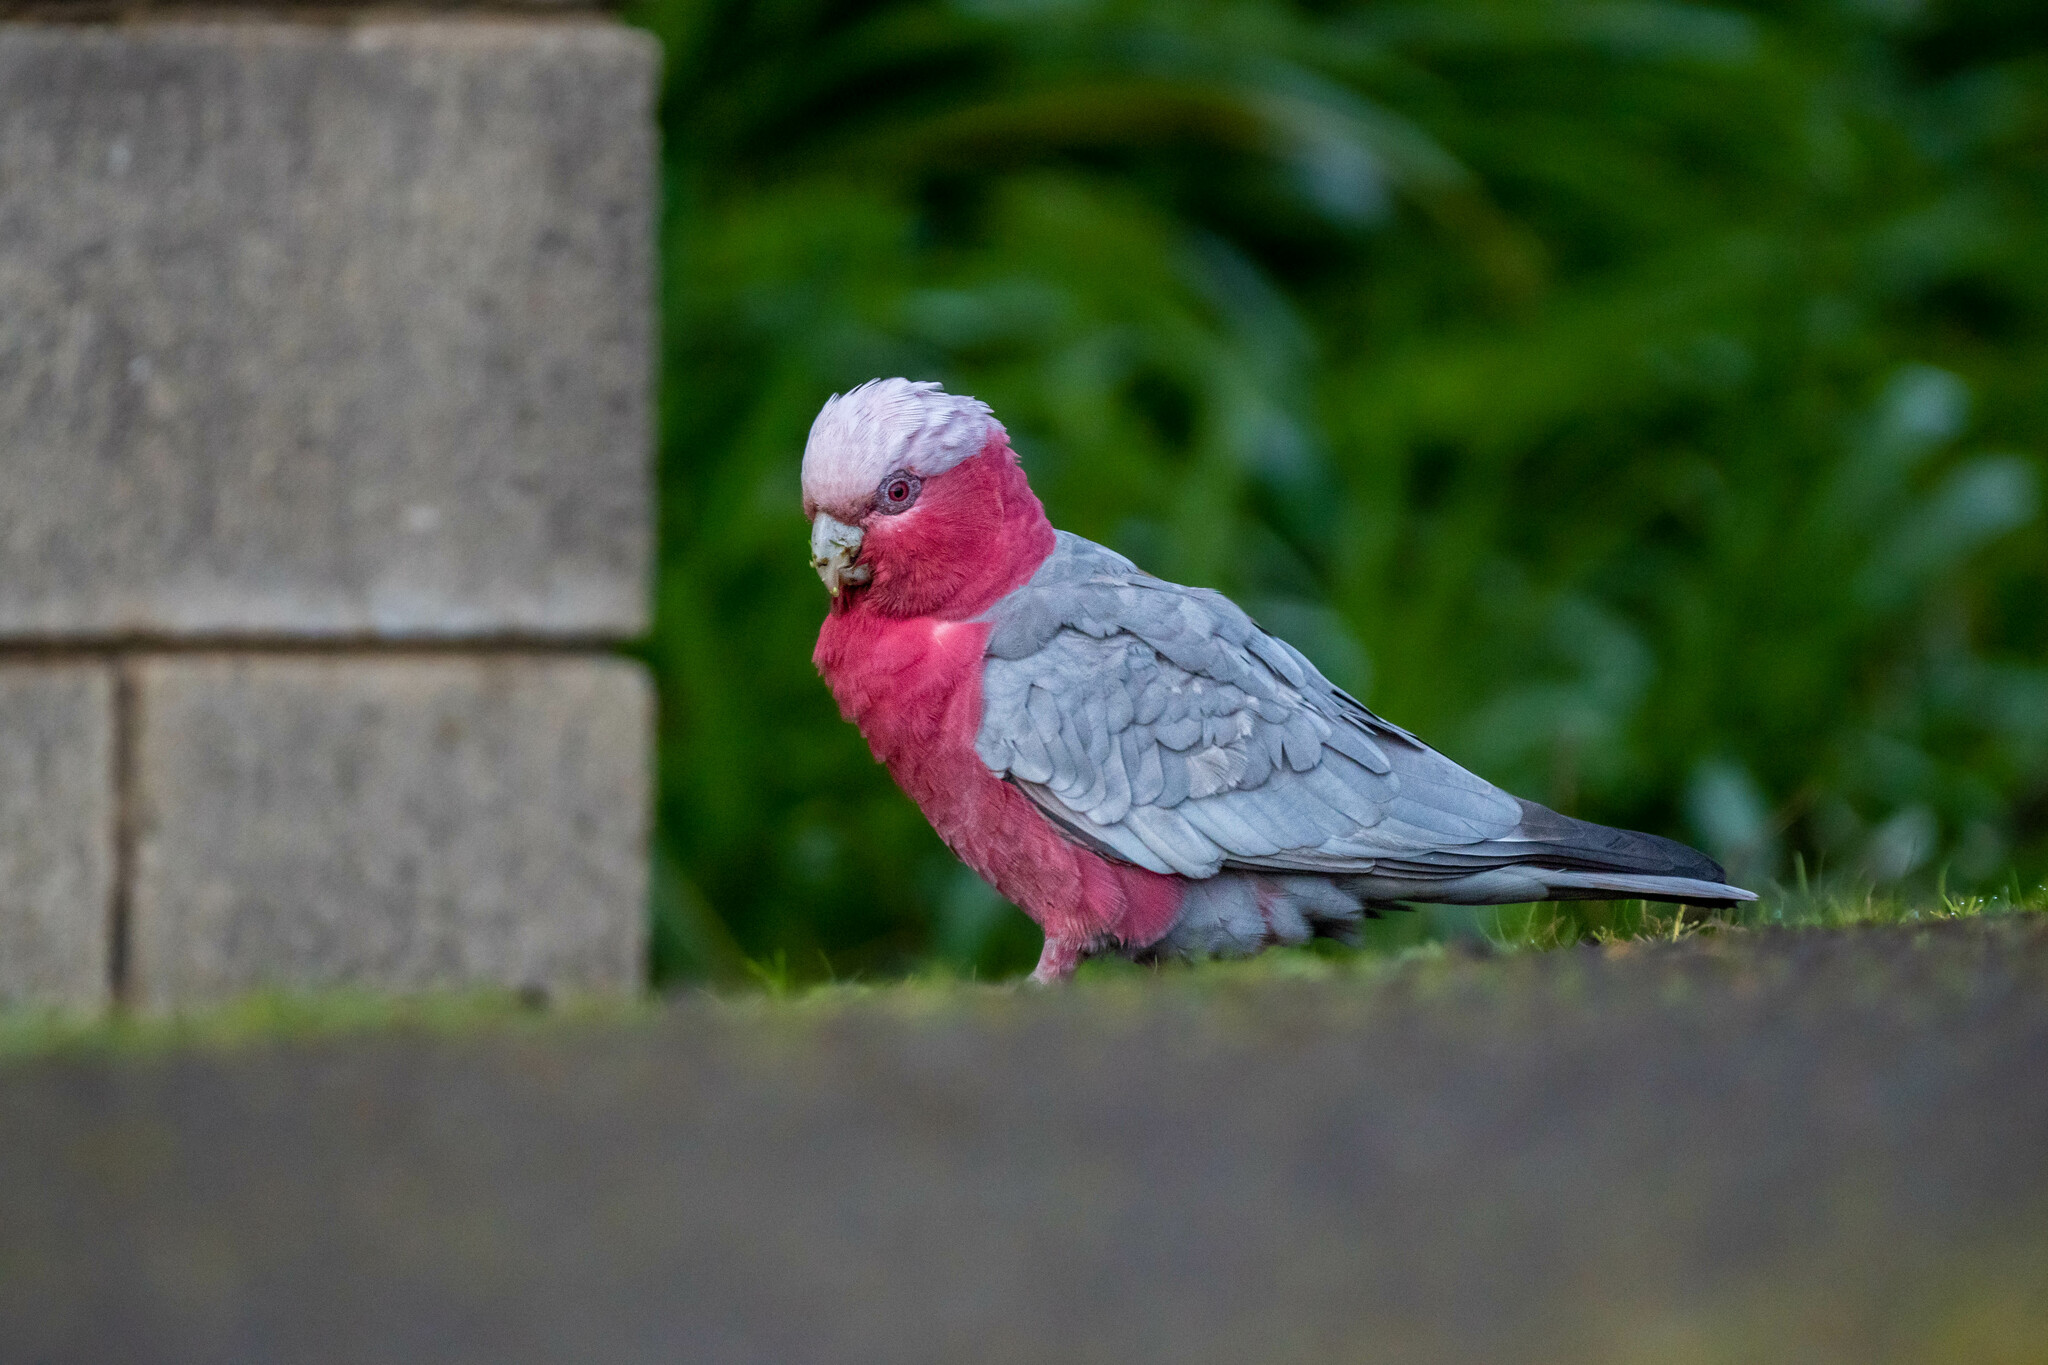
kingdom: Animalia
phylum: Chordata
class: Aves
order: Psittaciformes
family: Psittacidae
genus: Eolophus
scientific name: Eolophus roseicapilla
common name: Galah
